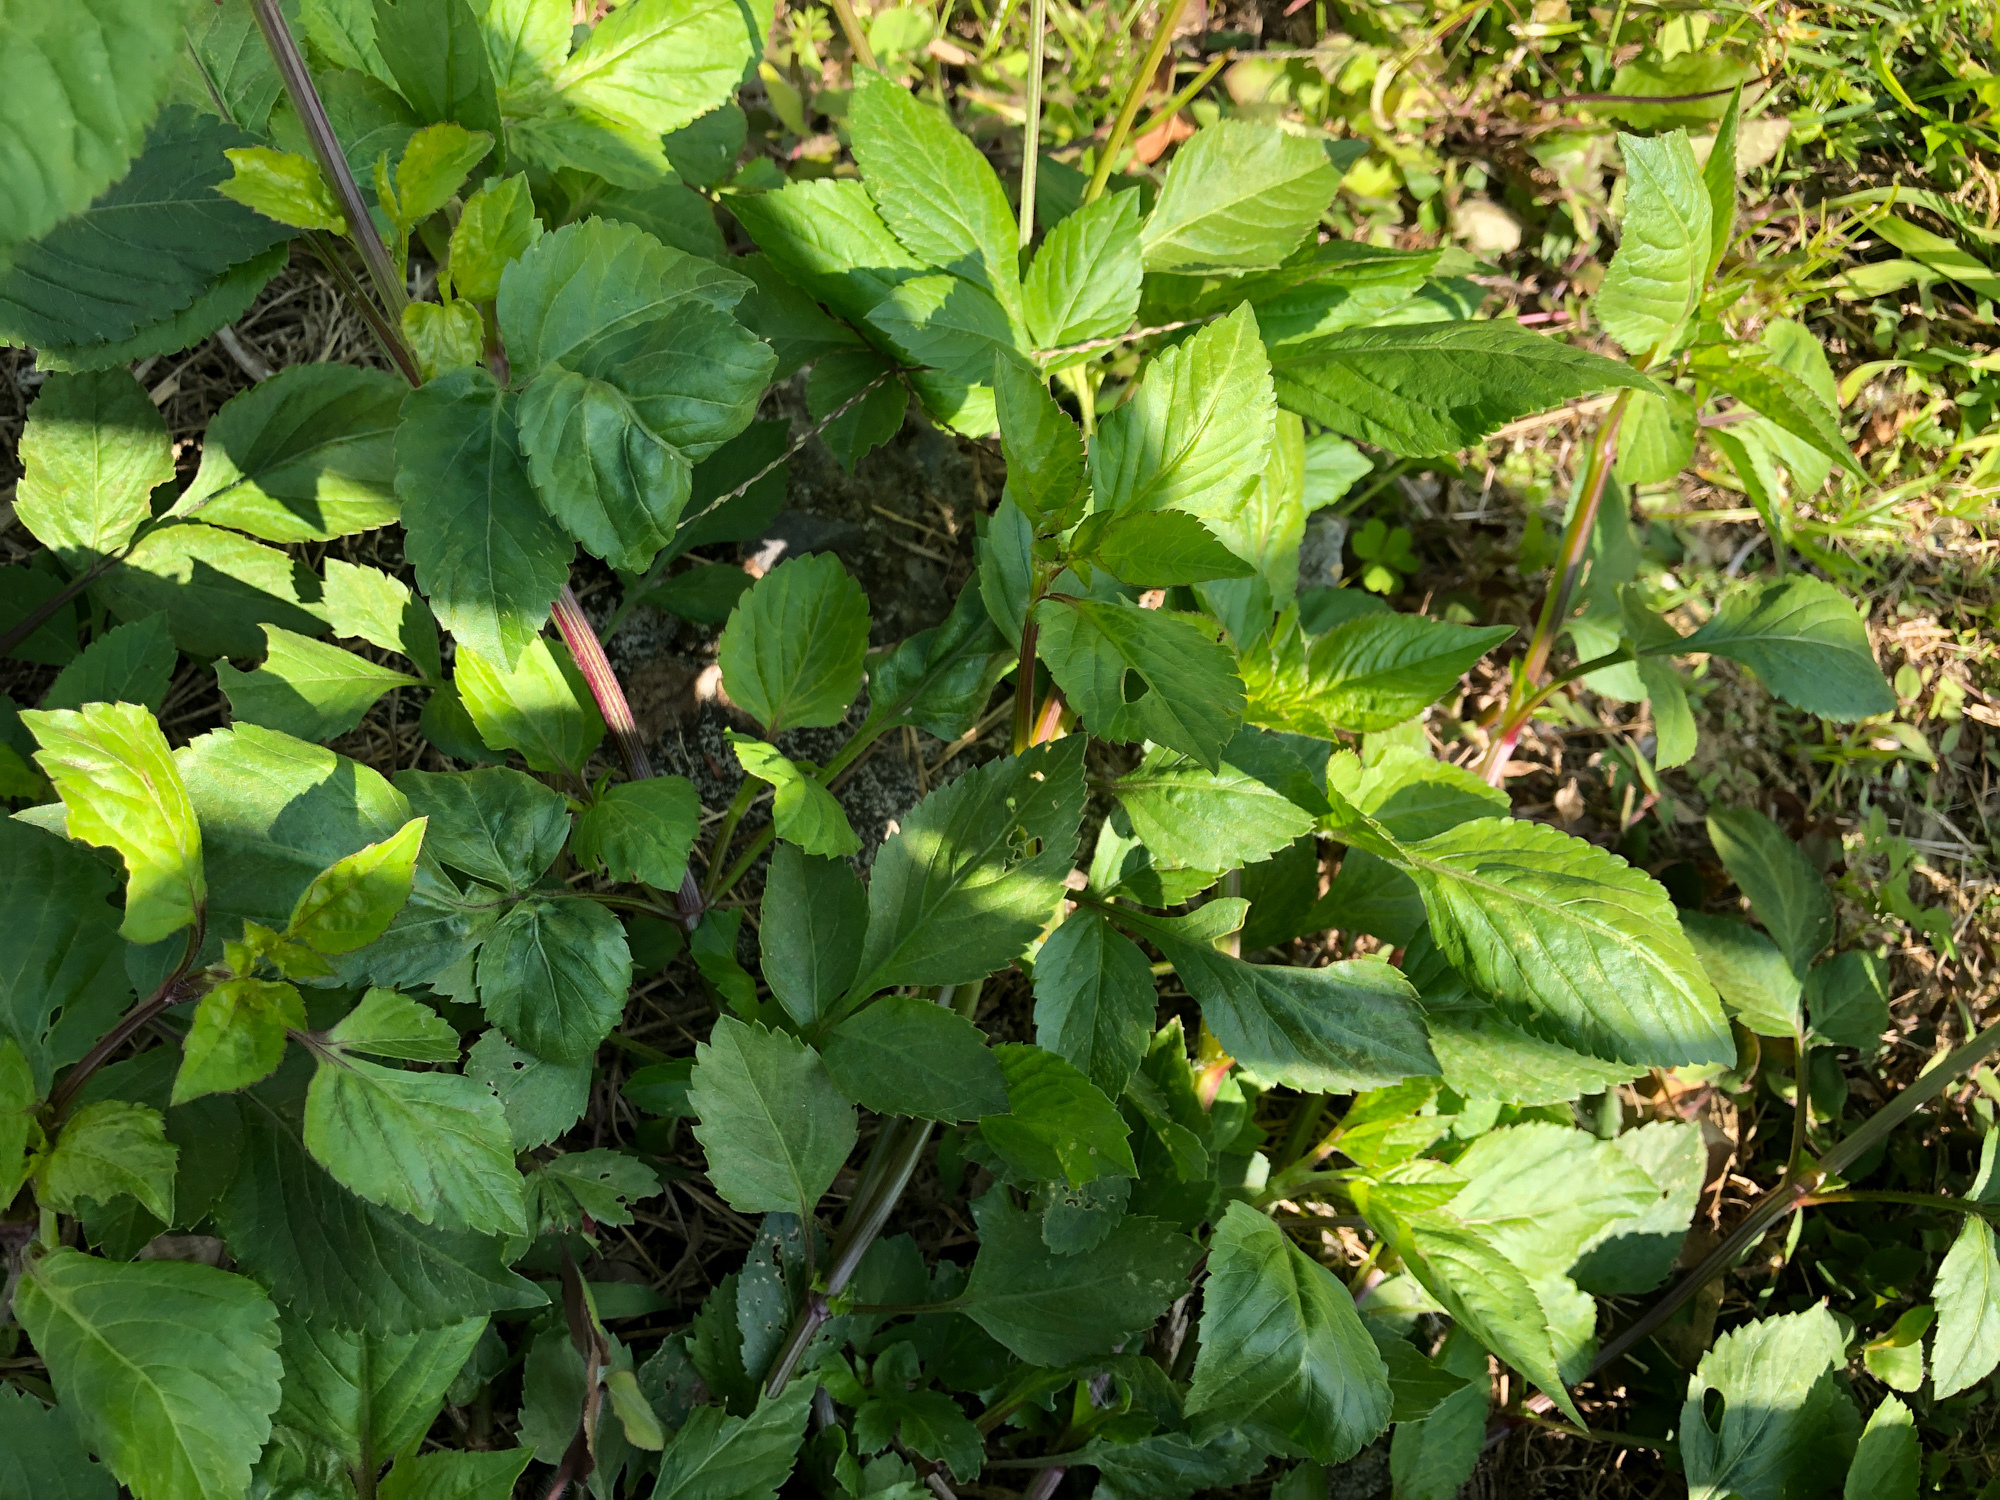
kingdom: Plantae
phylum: Tracheophyta
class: Magnoliopsida
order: Asterales
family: Asteraceae
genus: Bidens
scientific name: Bidens alba
